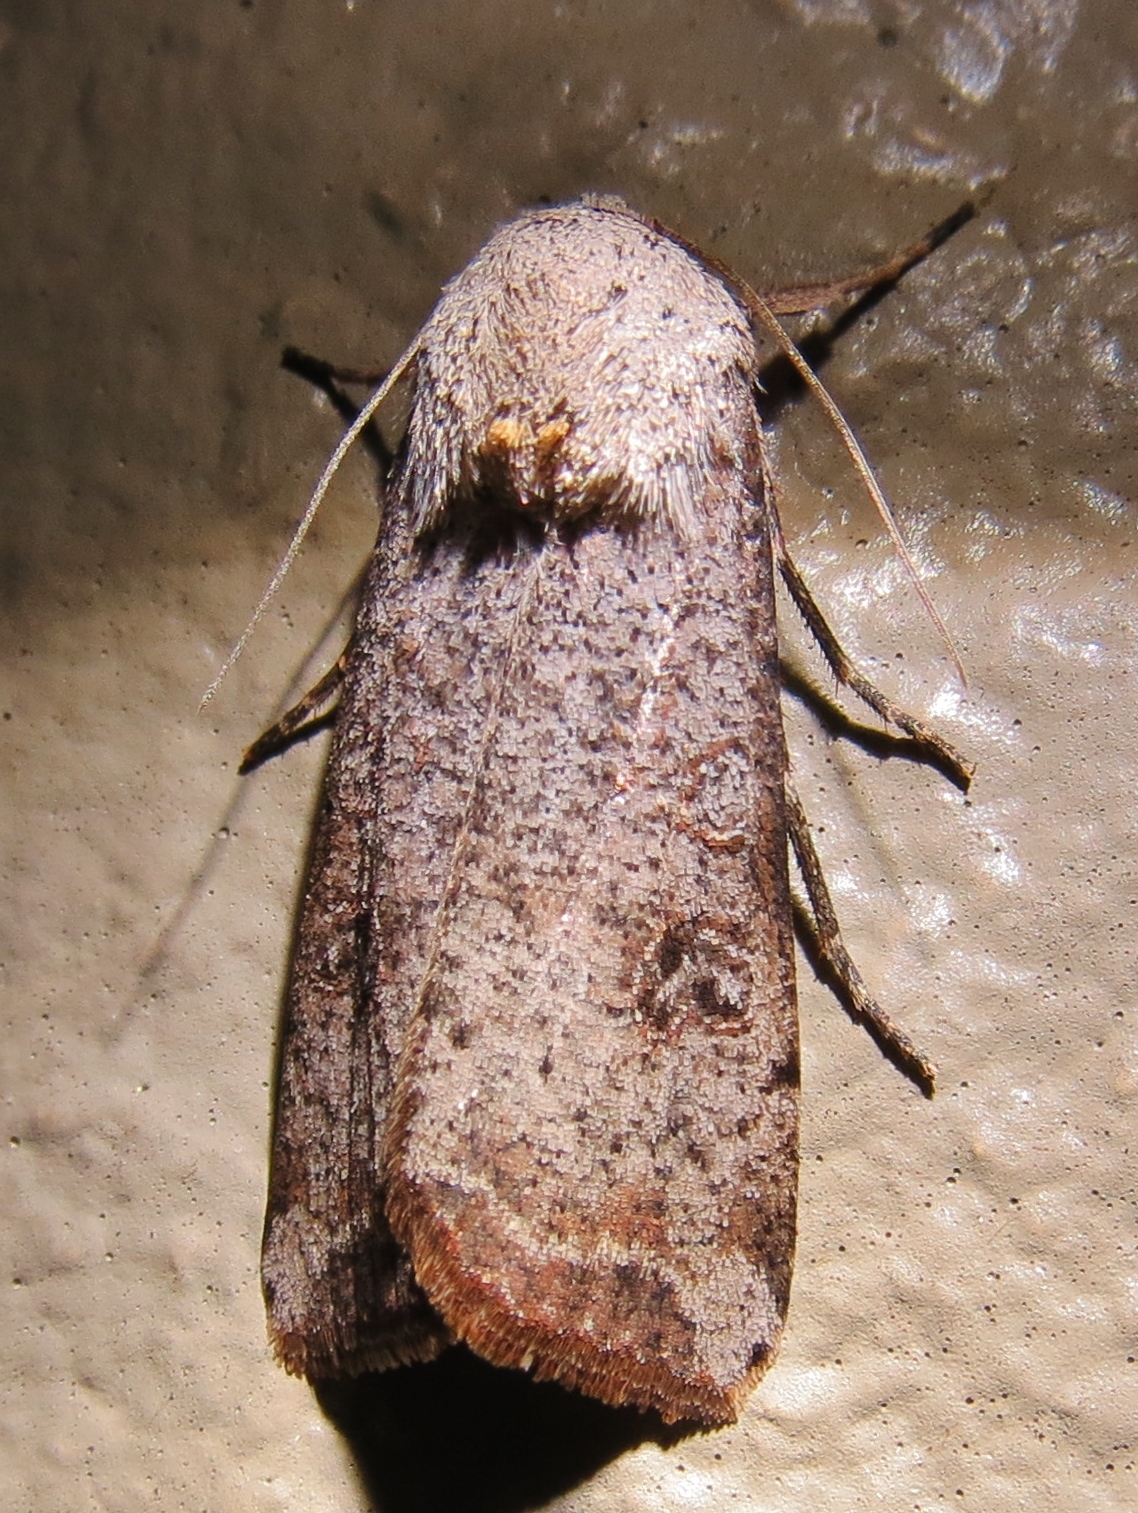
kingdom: Animalia
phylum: Arthropoda
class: Insecta
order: Lepidoptera
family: Noctuidae
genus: Anicla
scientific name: Anicla infecta
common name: Green cutworm
